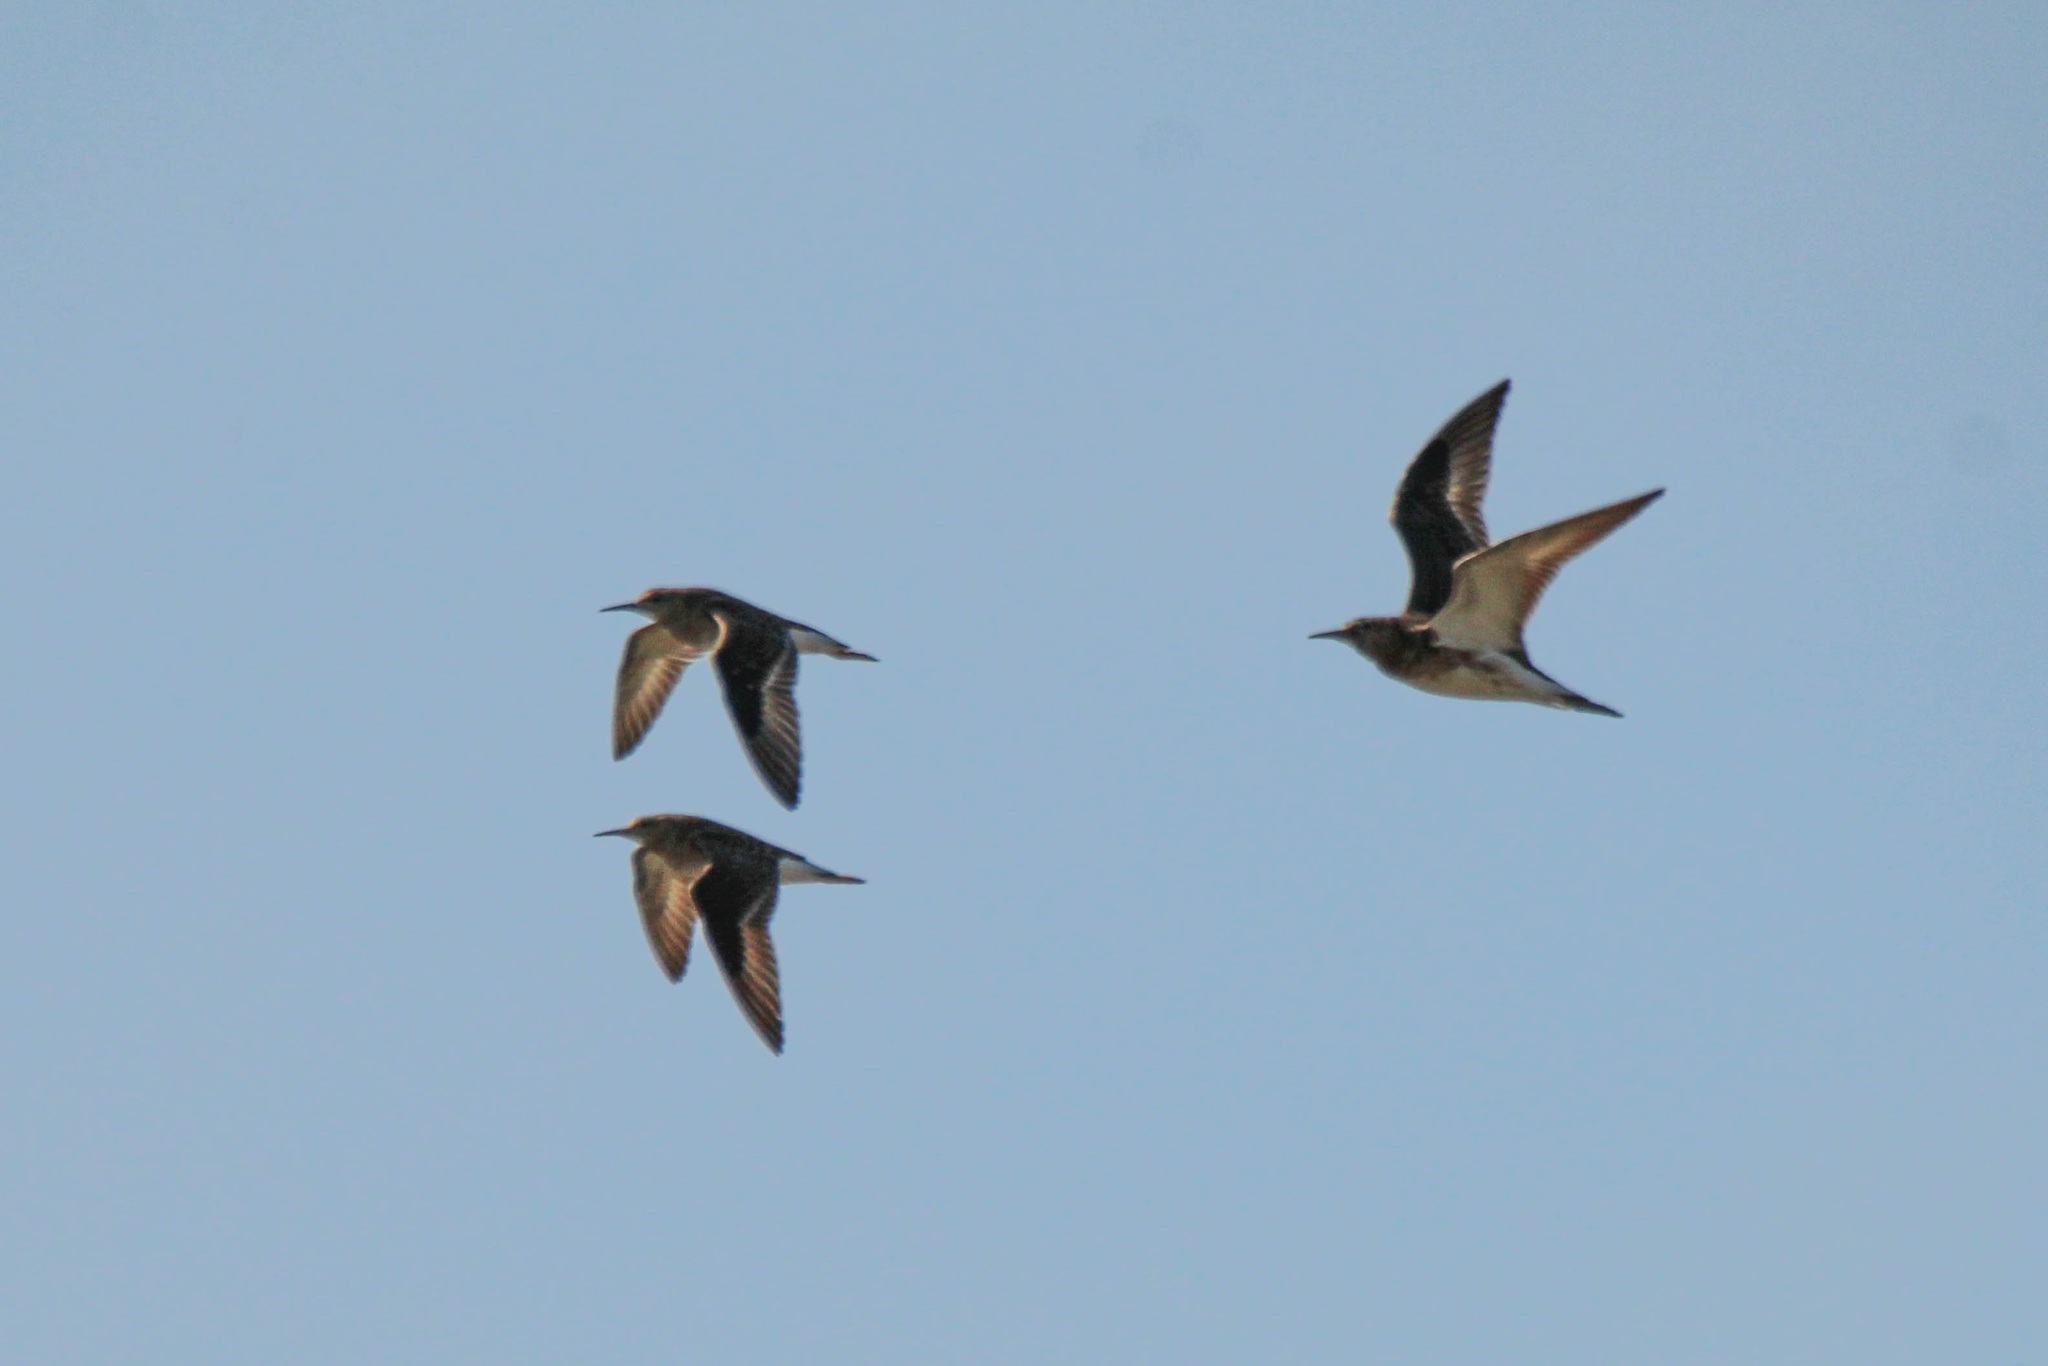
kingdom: Animalia
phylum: Chordata
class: Aves
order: Charadriiformes
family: Scolopacidae
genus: Calidris
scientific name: Calidris pugnax
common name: Ruff
